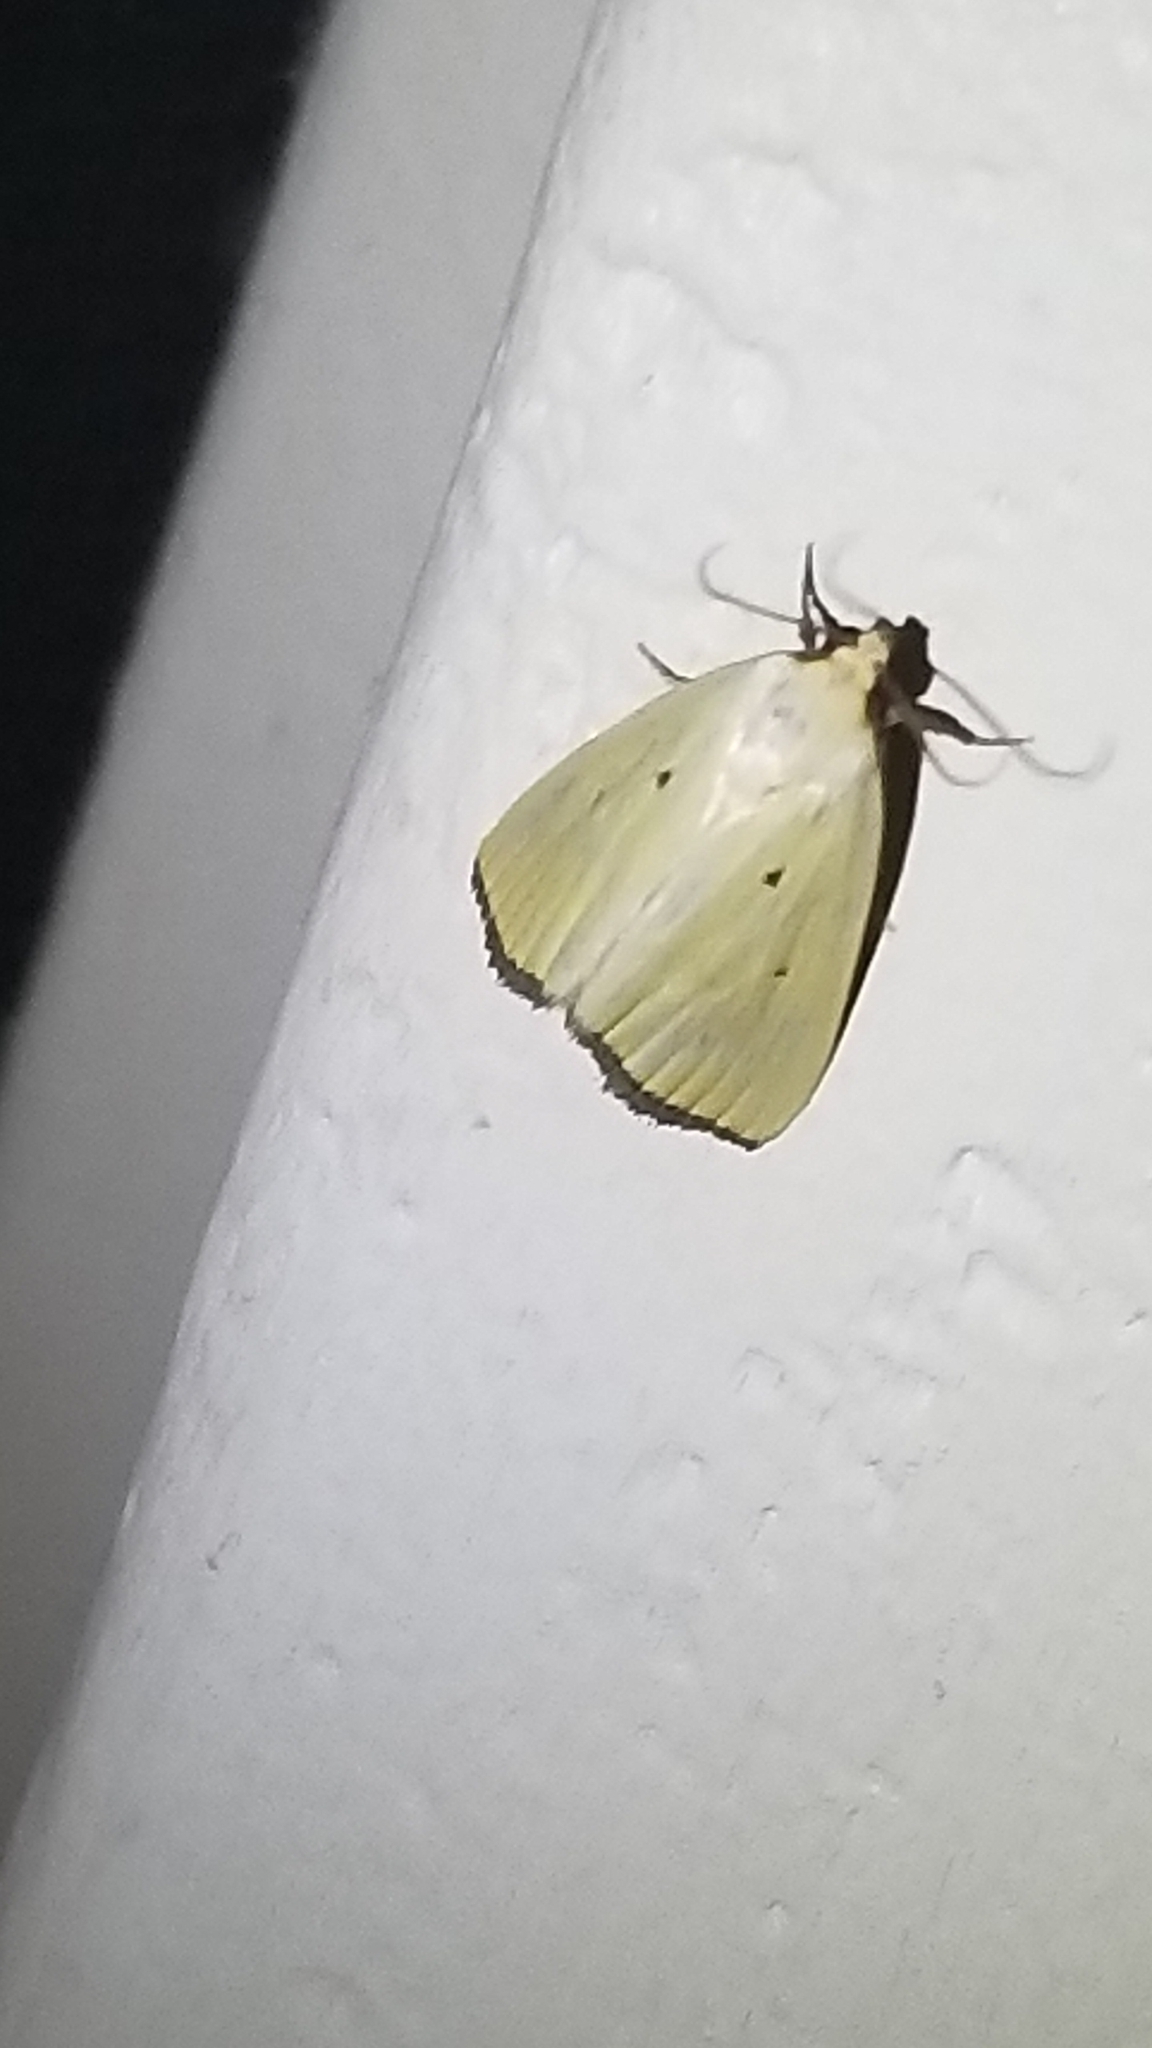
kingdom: Animalia
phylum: Arthropoda
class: Insecta
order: Lepidoptera
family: Noctuidae
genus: Marimatha
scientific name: Marimatha nigrofimbria
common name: Black-bordered lemon moth
